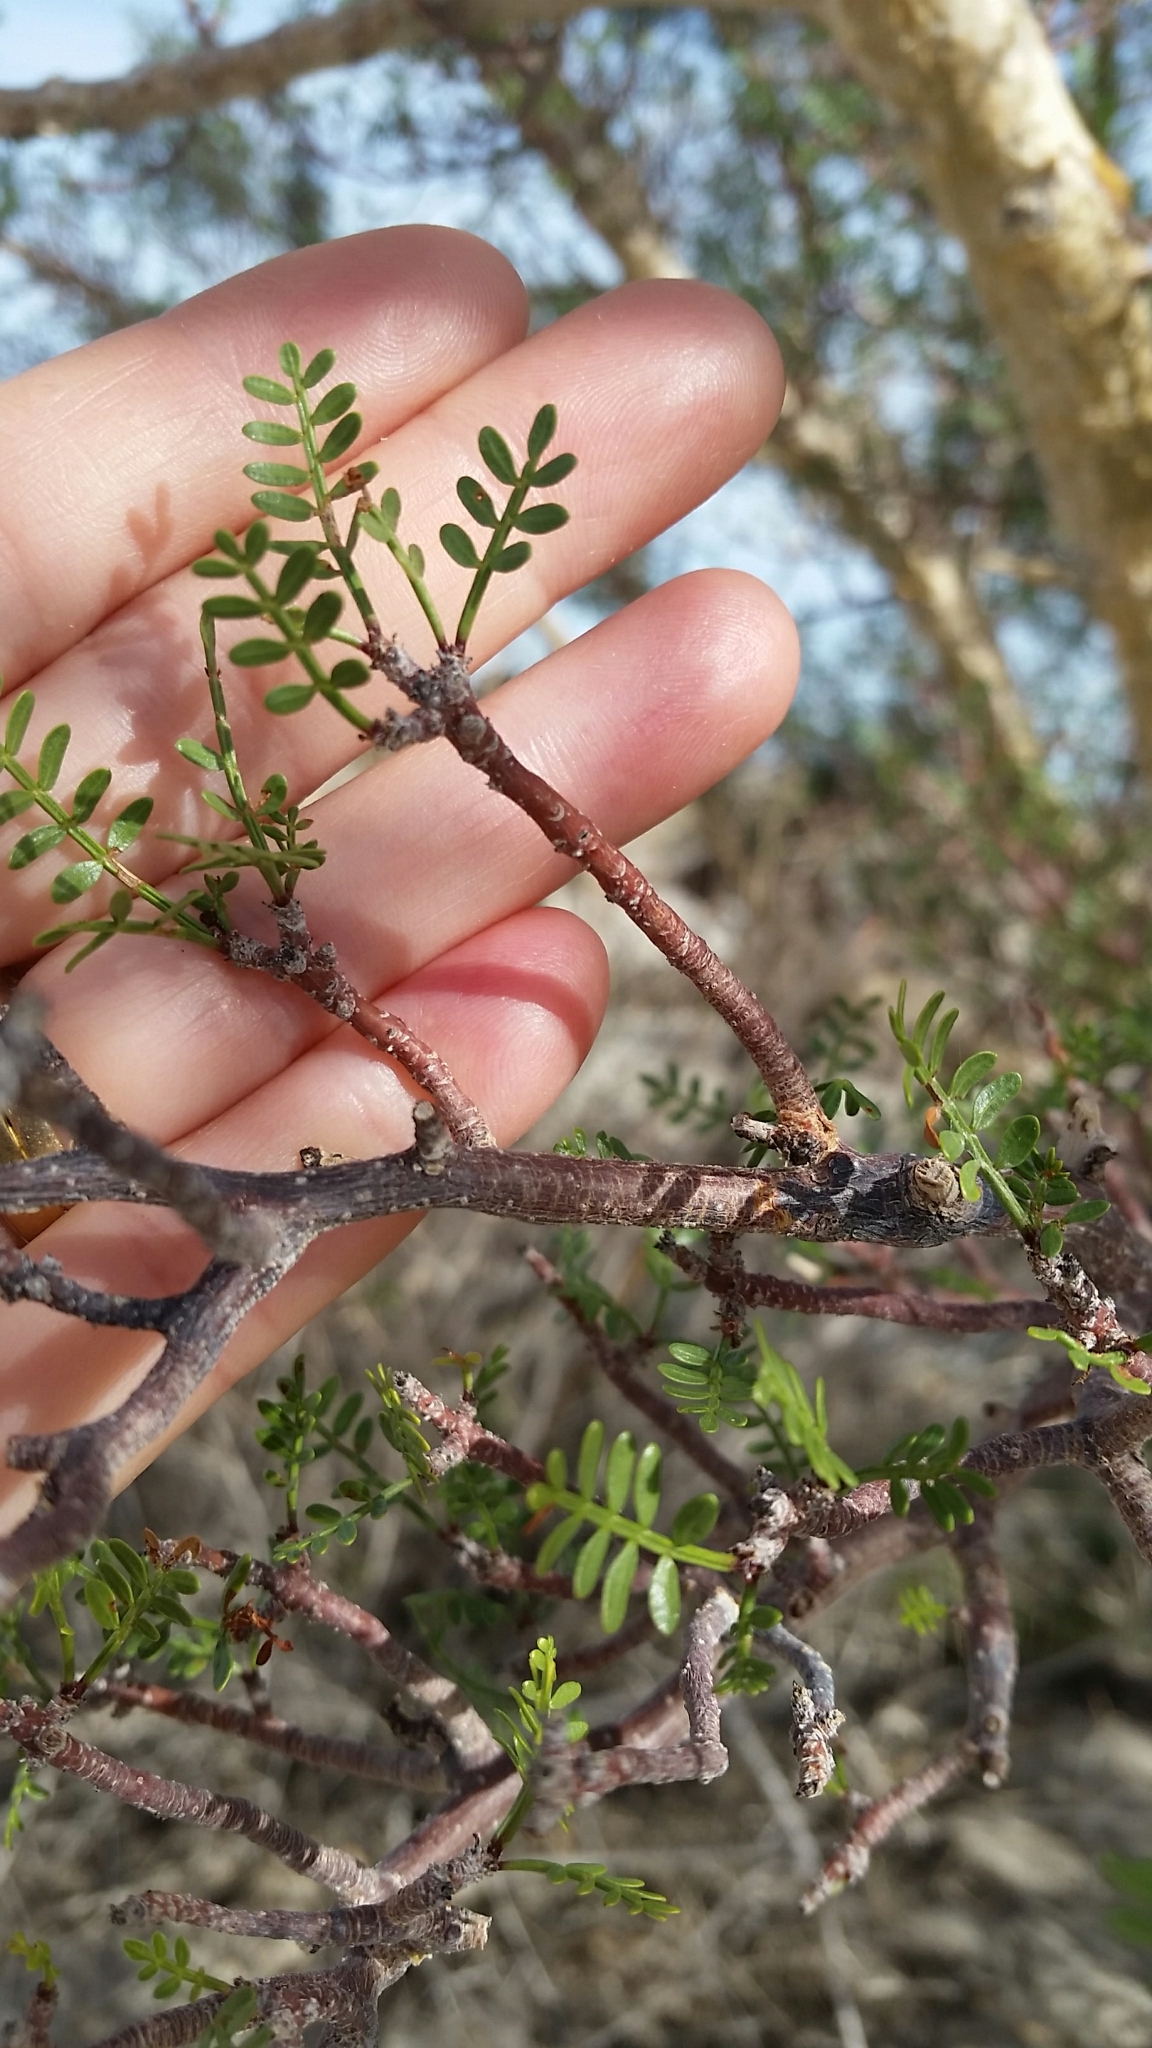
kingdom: Plantae
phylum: Tracheophyta
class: Magnoliopsida
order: Sapindales
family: Burseraceae
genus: Bursera
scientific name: Bursera microphylla
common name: Elephant tree
